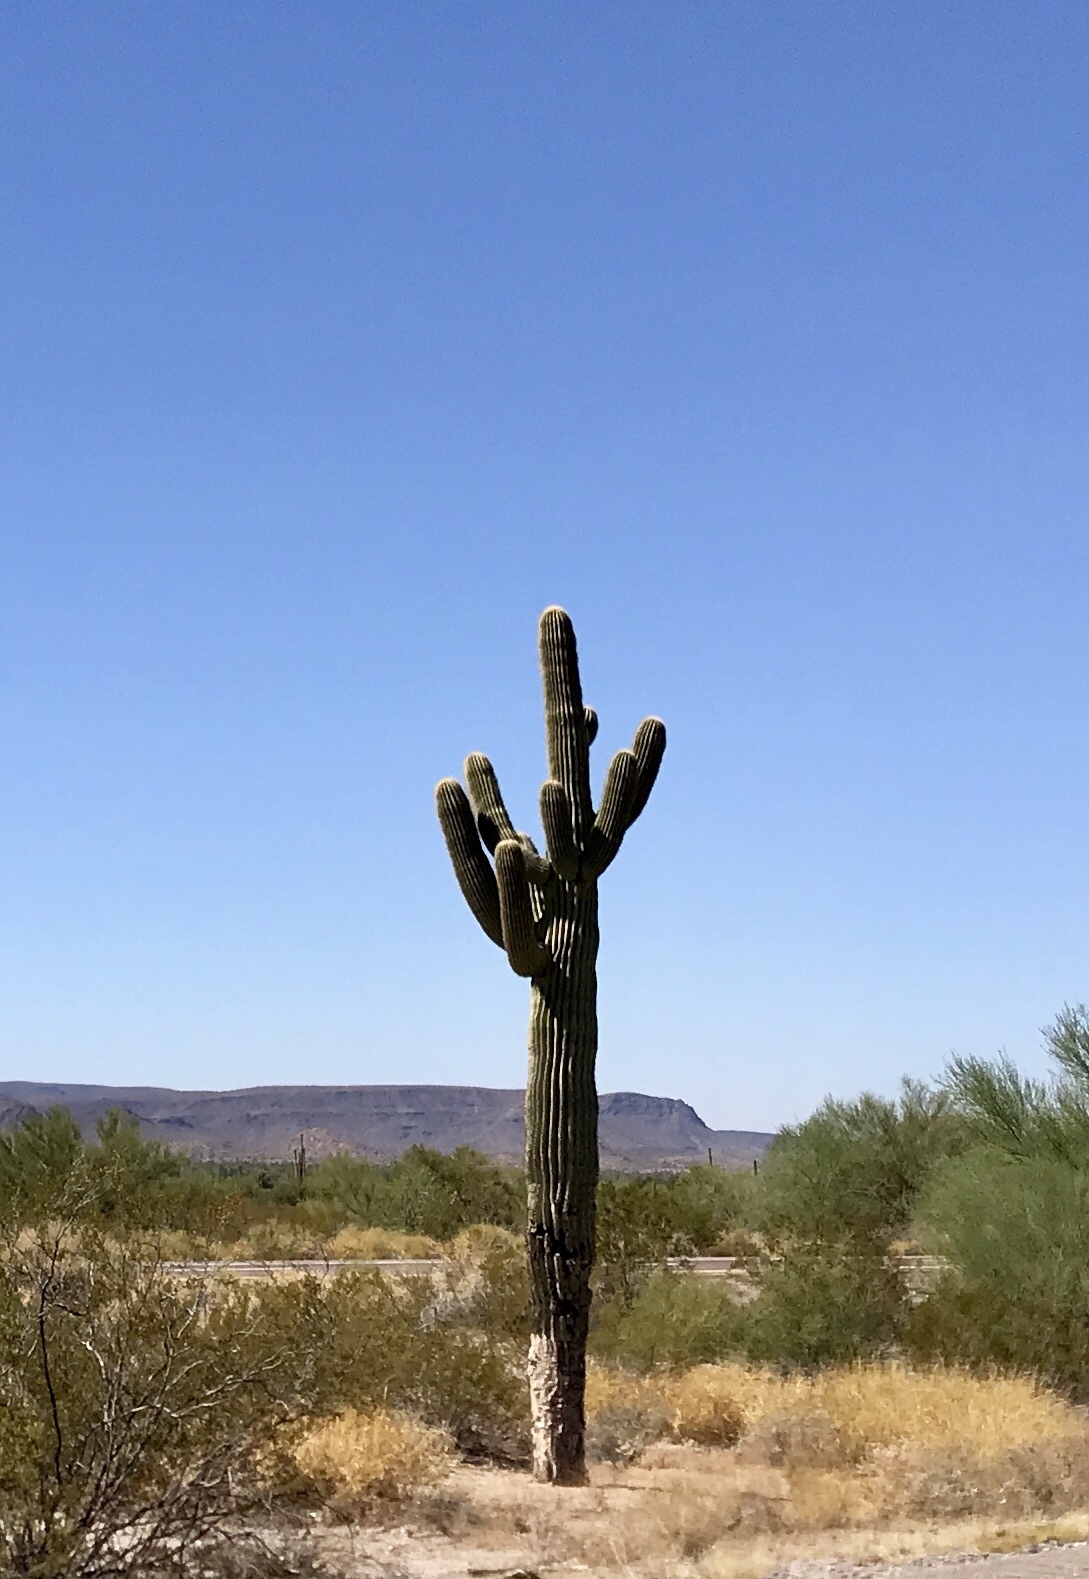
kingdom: Plantae
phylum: Tracheophyta
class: Magnoliopsida
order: Caryophyllales
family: Cactaceae
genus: Carnegiea
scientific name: Carnegiea gigantea
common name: Saguaro
